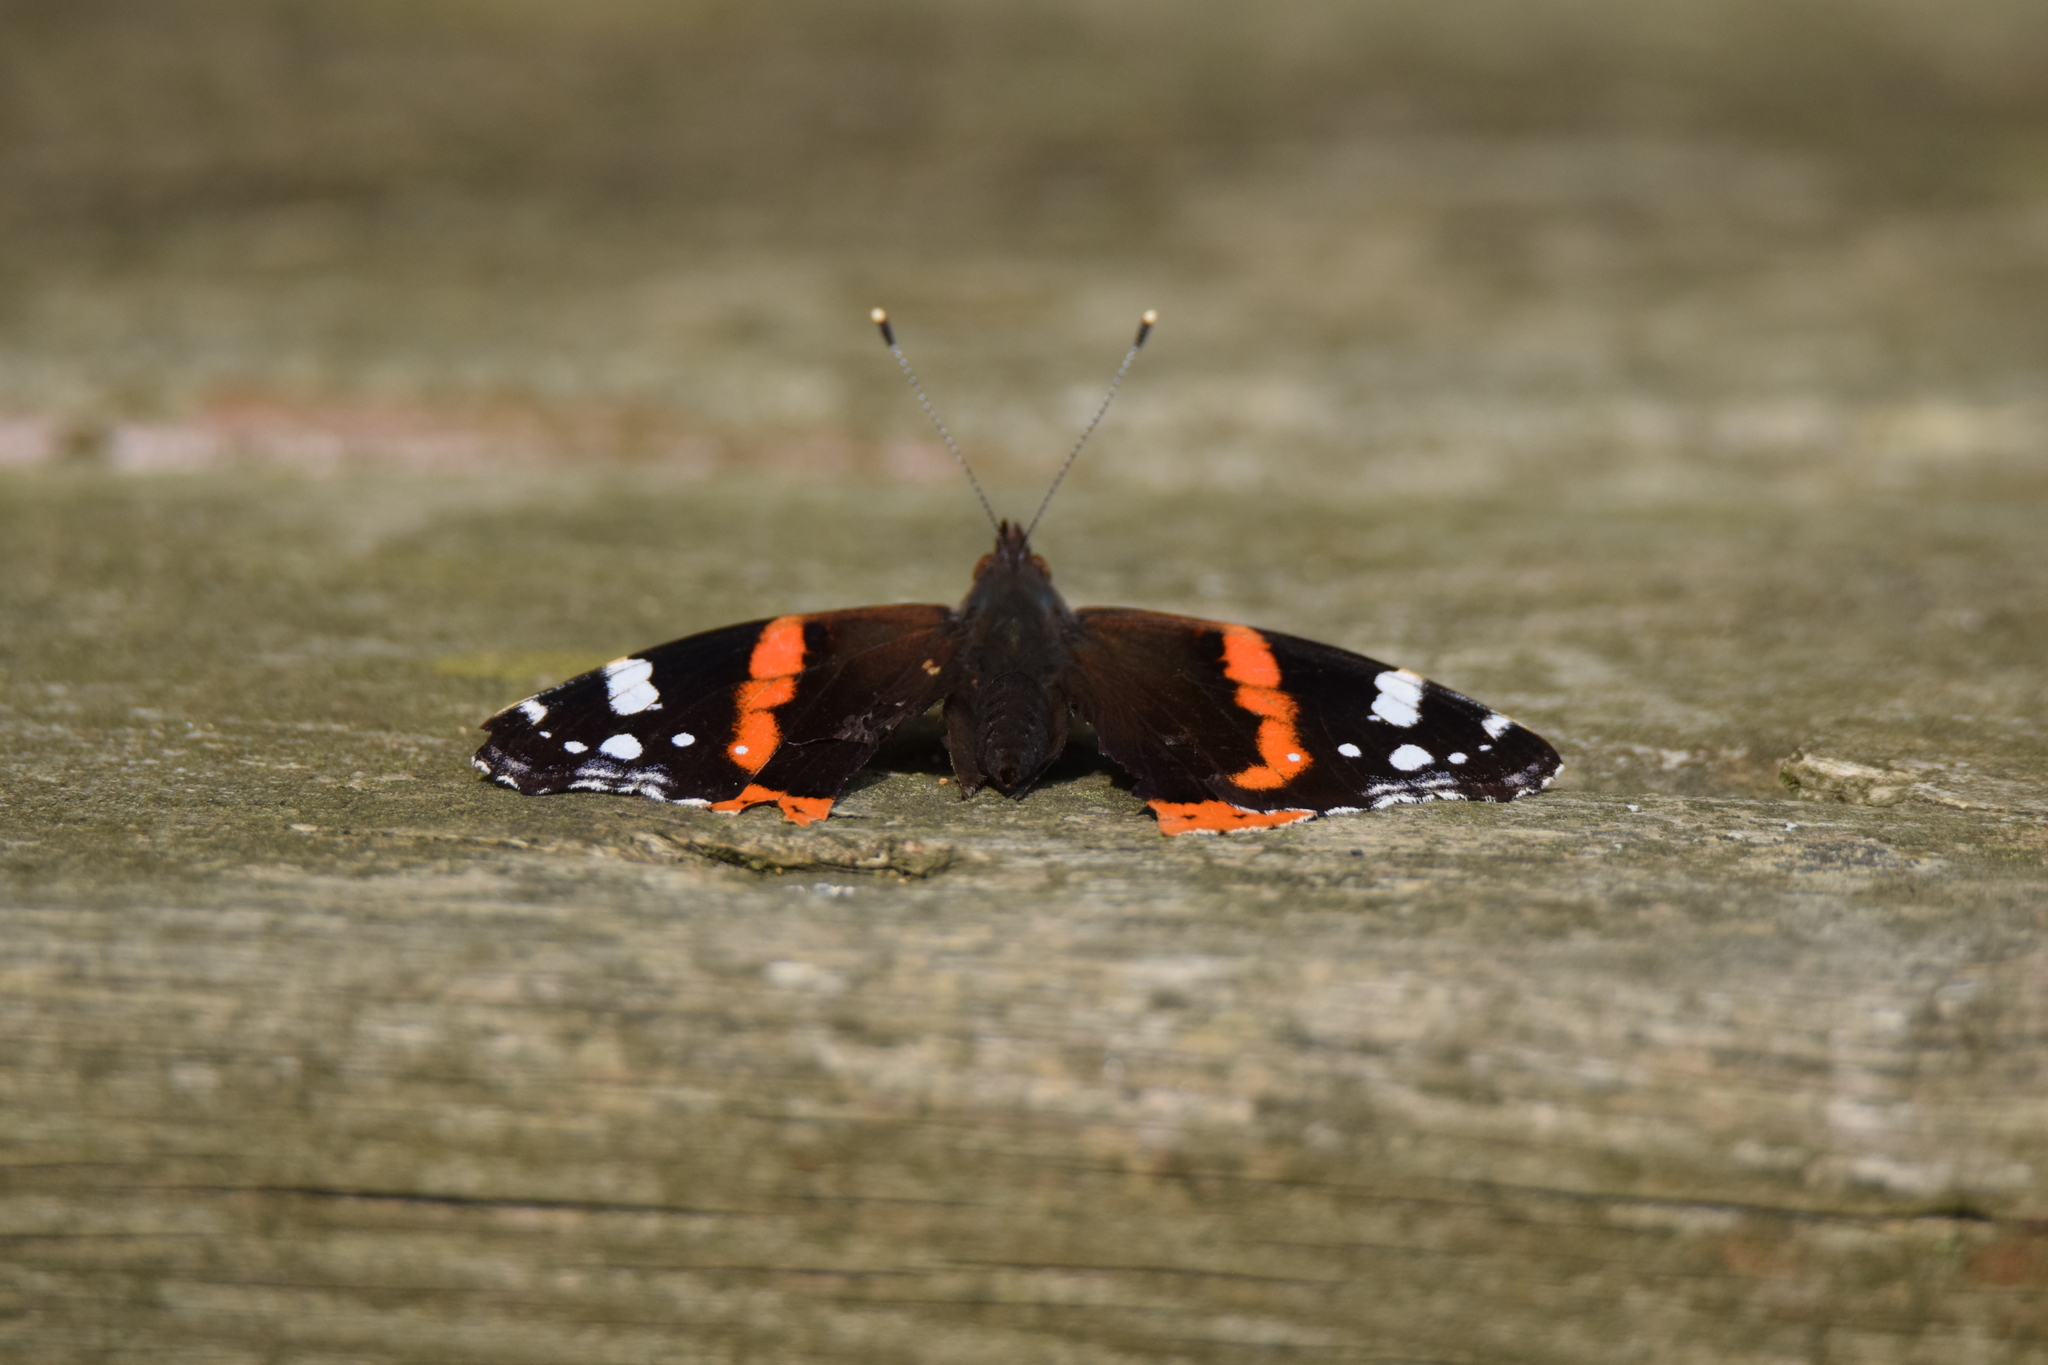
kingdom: Animalia
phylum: Arthropoda
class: Insecta
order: Lepidoptera
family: Nymphalidae
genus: Vanessa
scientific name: Vanessa atalanta
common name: Red admiral
